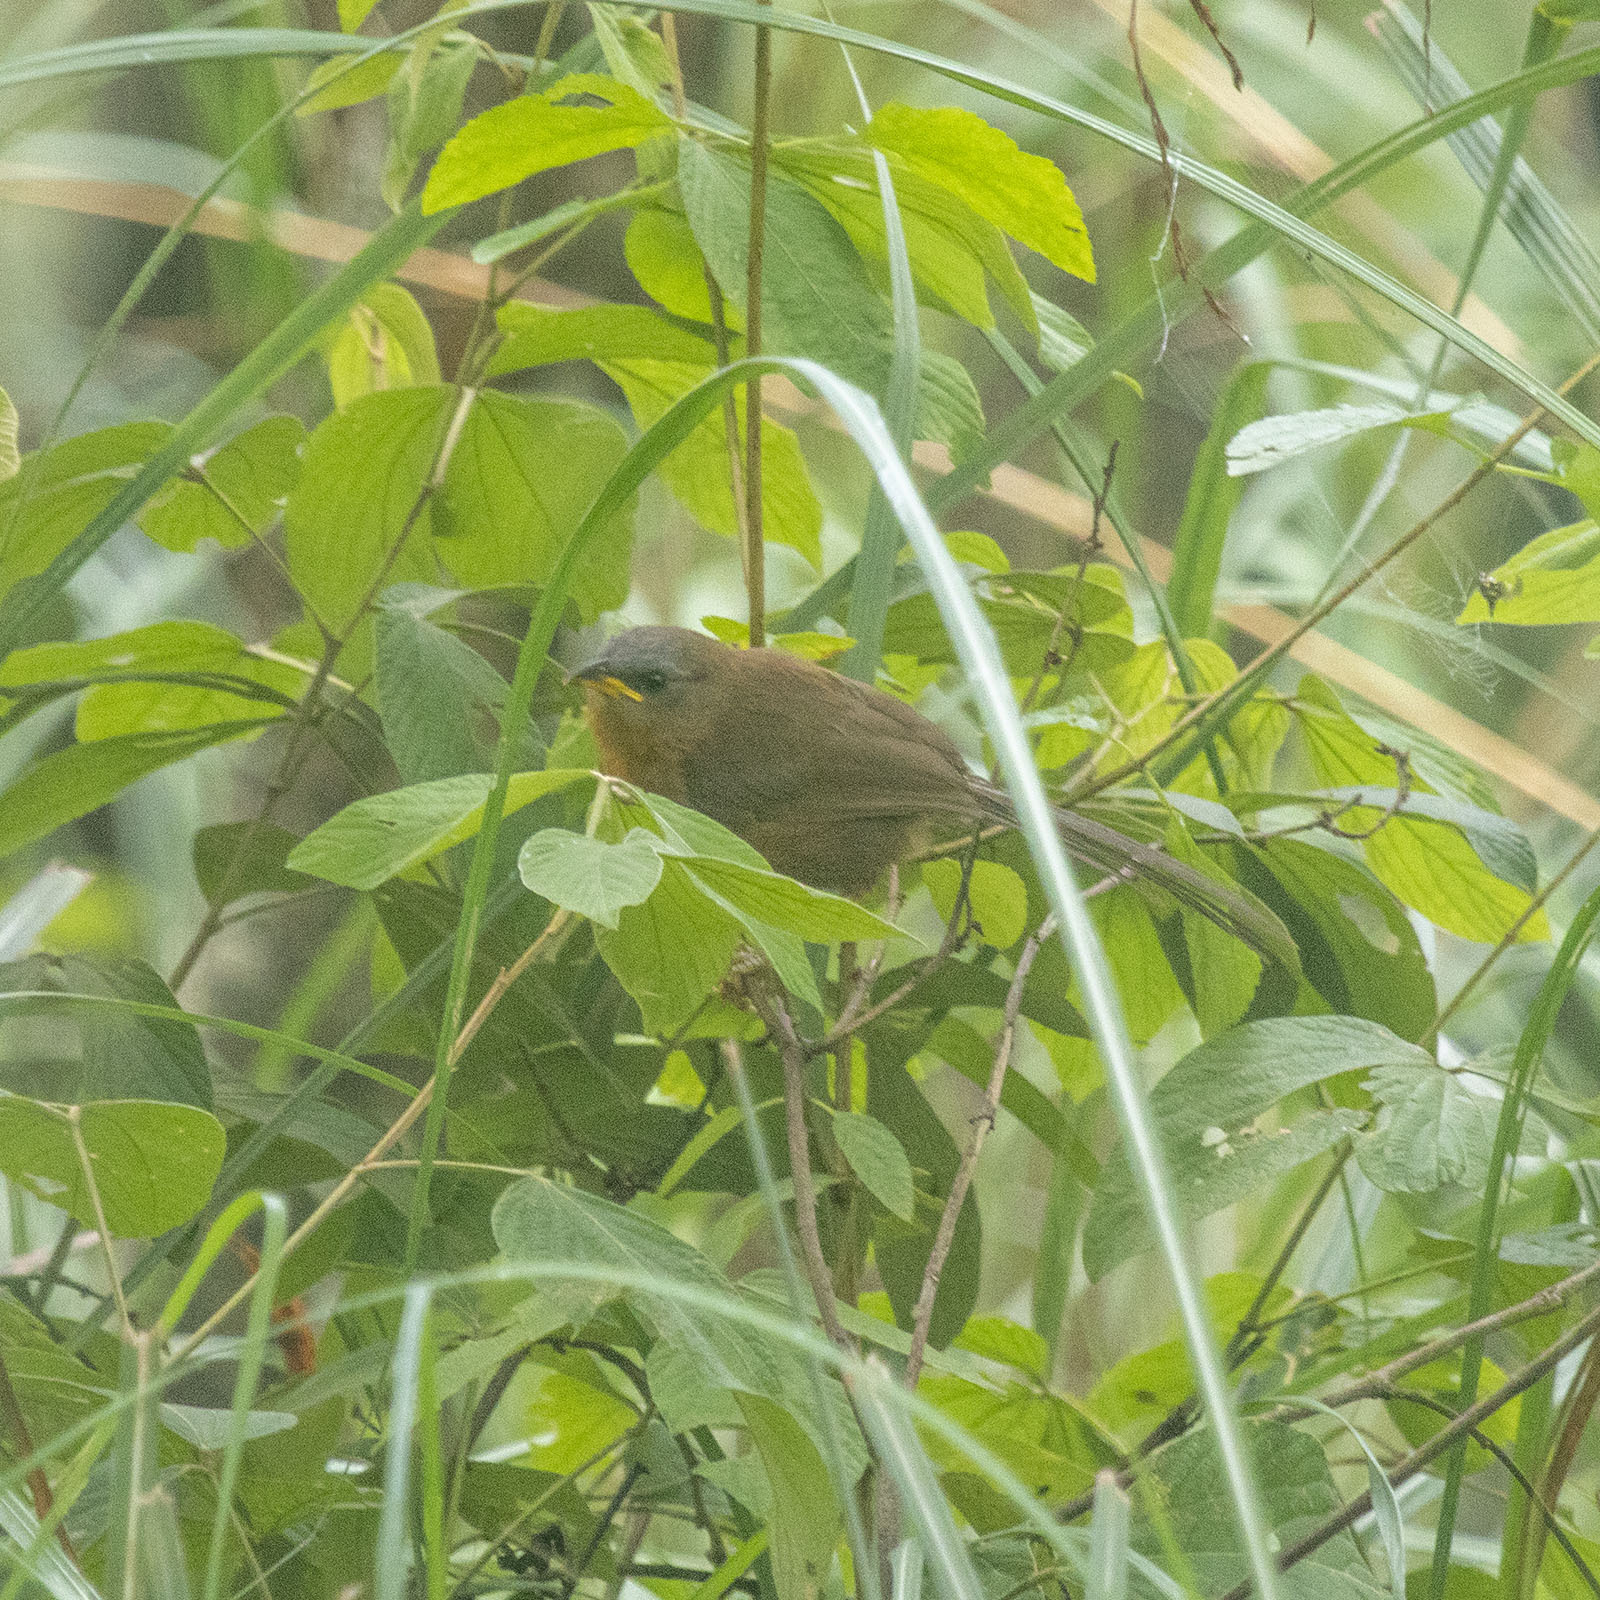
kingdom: Animalia
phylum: Chordata
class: Aves
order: Passeriformes
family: Leiothrichidae
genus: Turdoides
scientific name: Turdoides subrufa
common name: Rufous babbler
